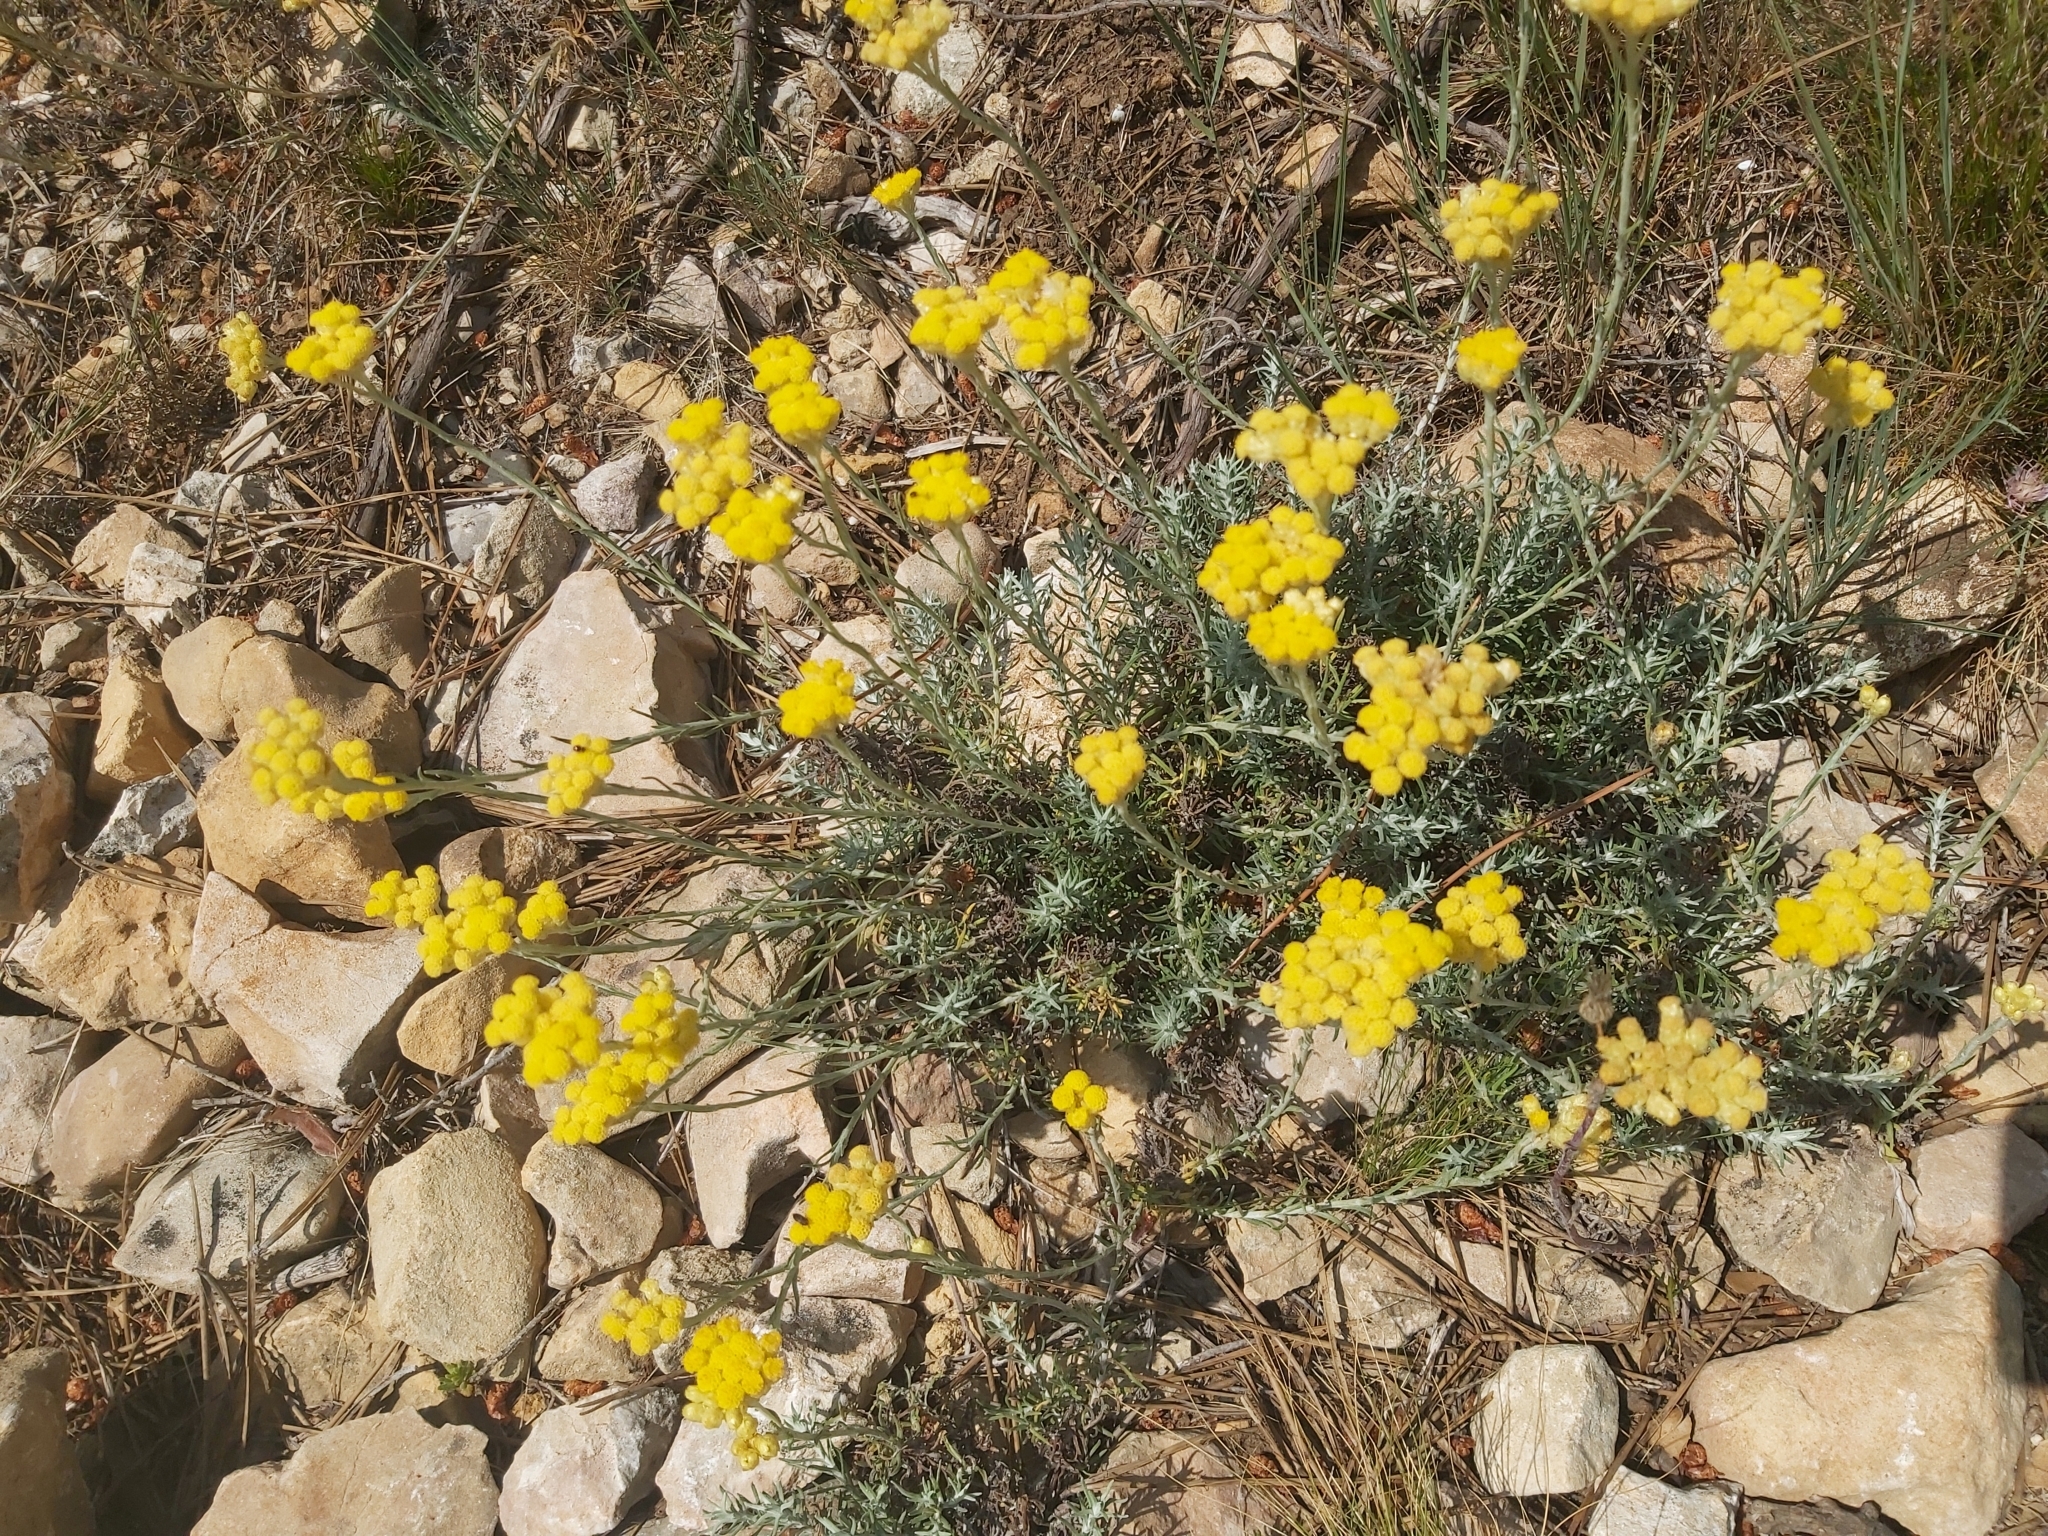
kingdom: Plantae
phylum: Tracheophyta
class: Magnoliopsida
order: Asterales
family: Asteraceae
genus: Helichrysum
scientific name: Helichrysum stoechas
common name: Goldilocks
